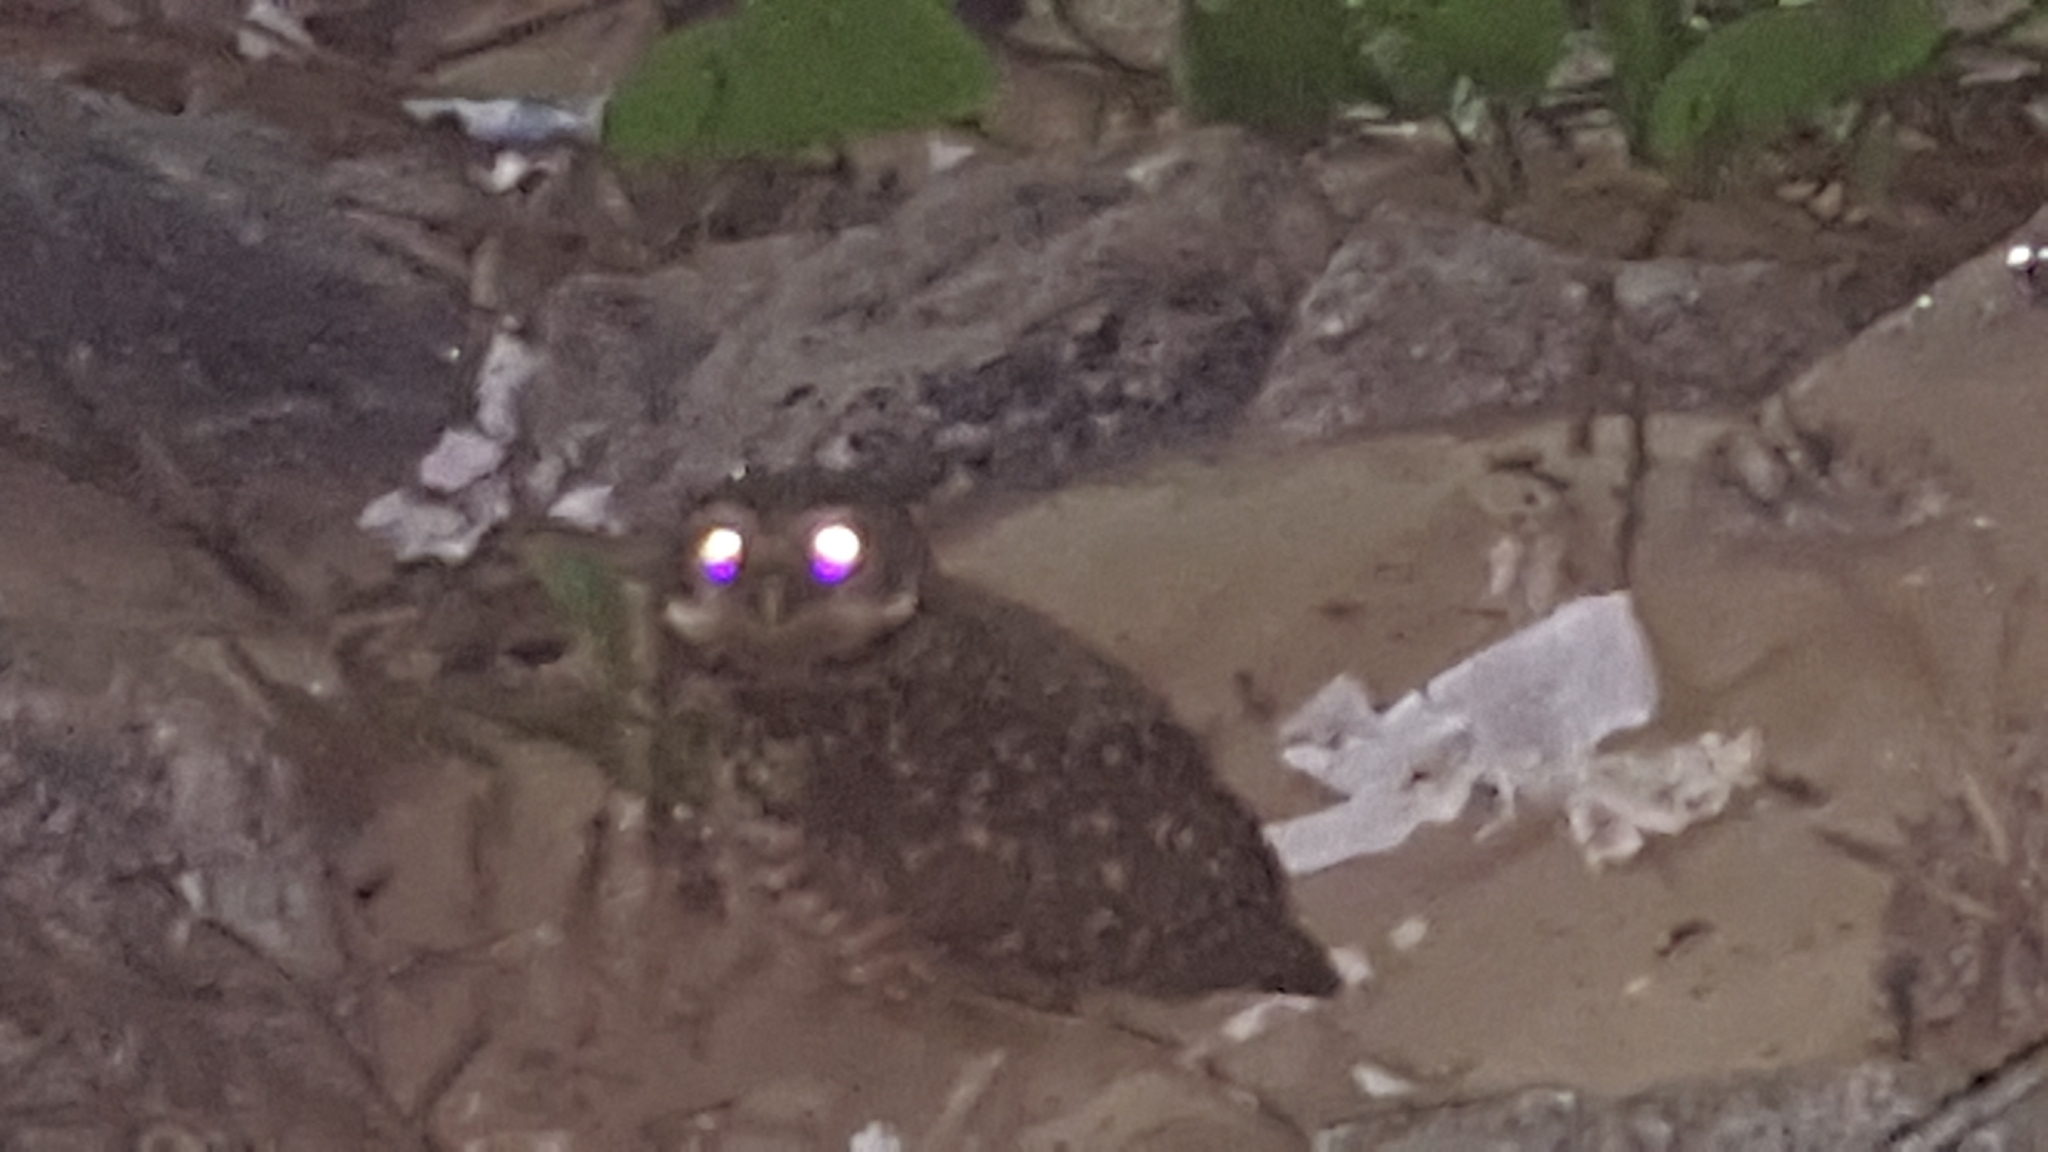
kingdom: Animalia
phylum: Chordata
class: Aves
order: Strigiformes
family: Strigidae
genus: Athene
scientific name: Athene cunicularia
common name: Burrowing owl
